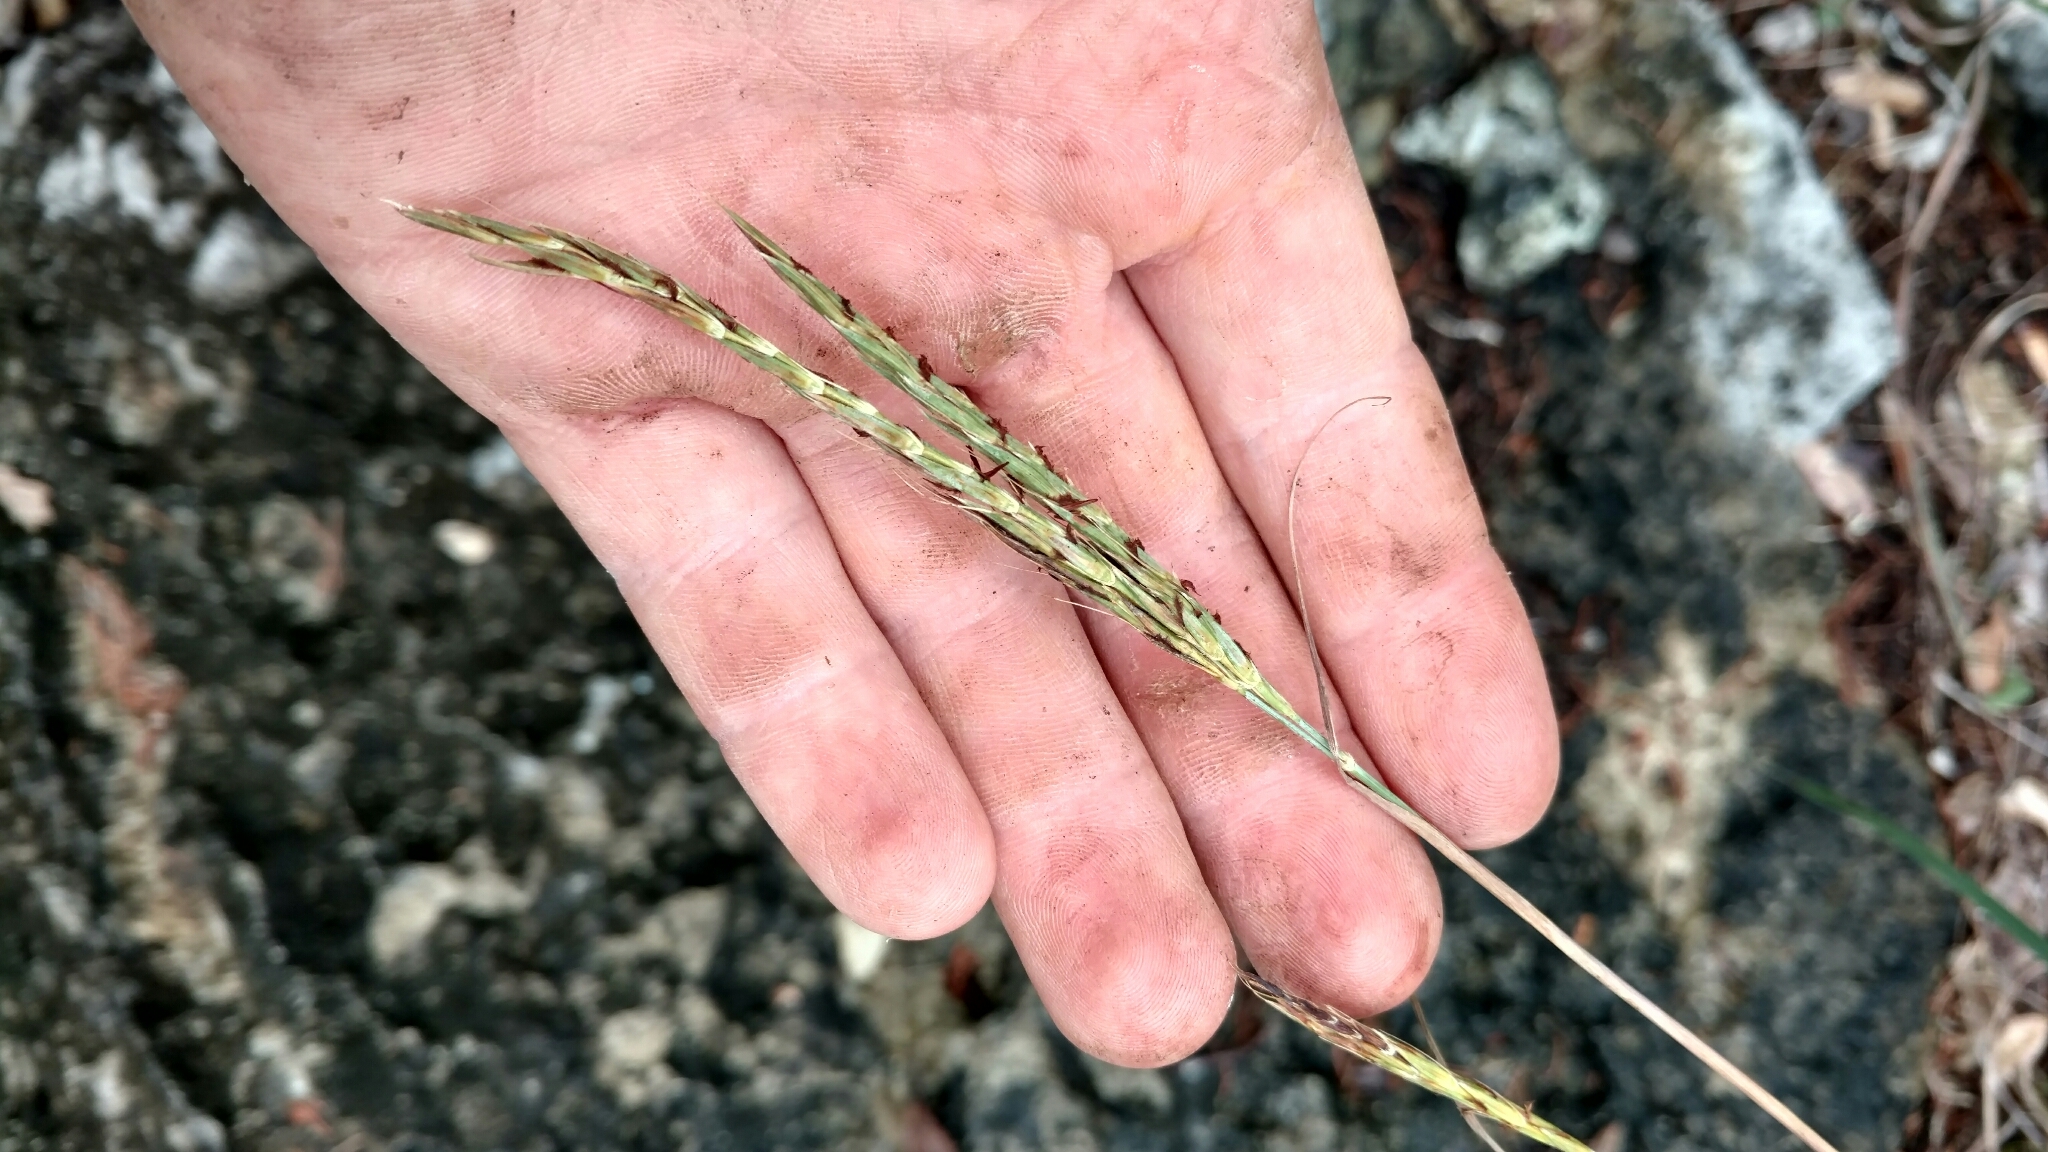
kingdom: Plantae
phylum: Tracheophyta
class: Liliopsida
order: Poales
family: Poaceae
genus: Andropogon
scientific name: Andropogon gerardi
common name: Big bluestem
